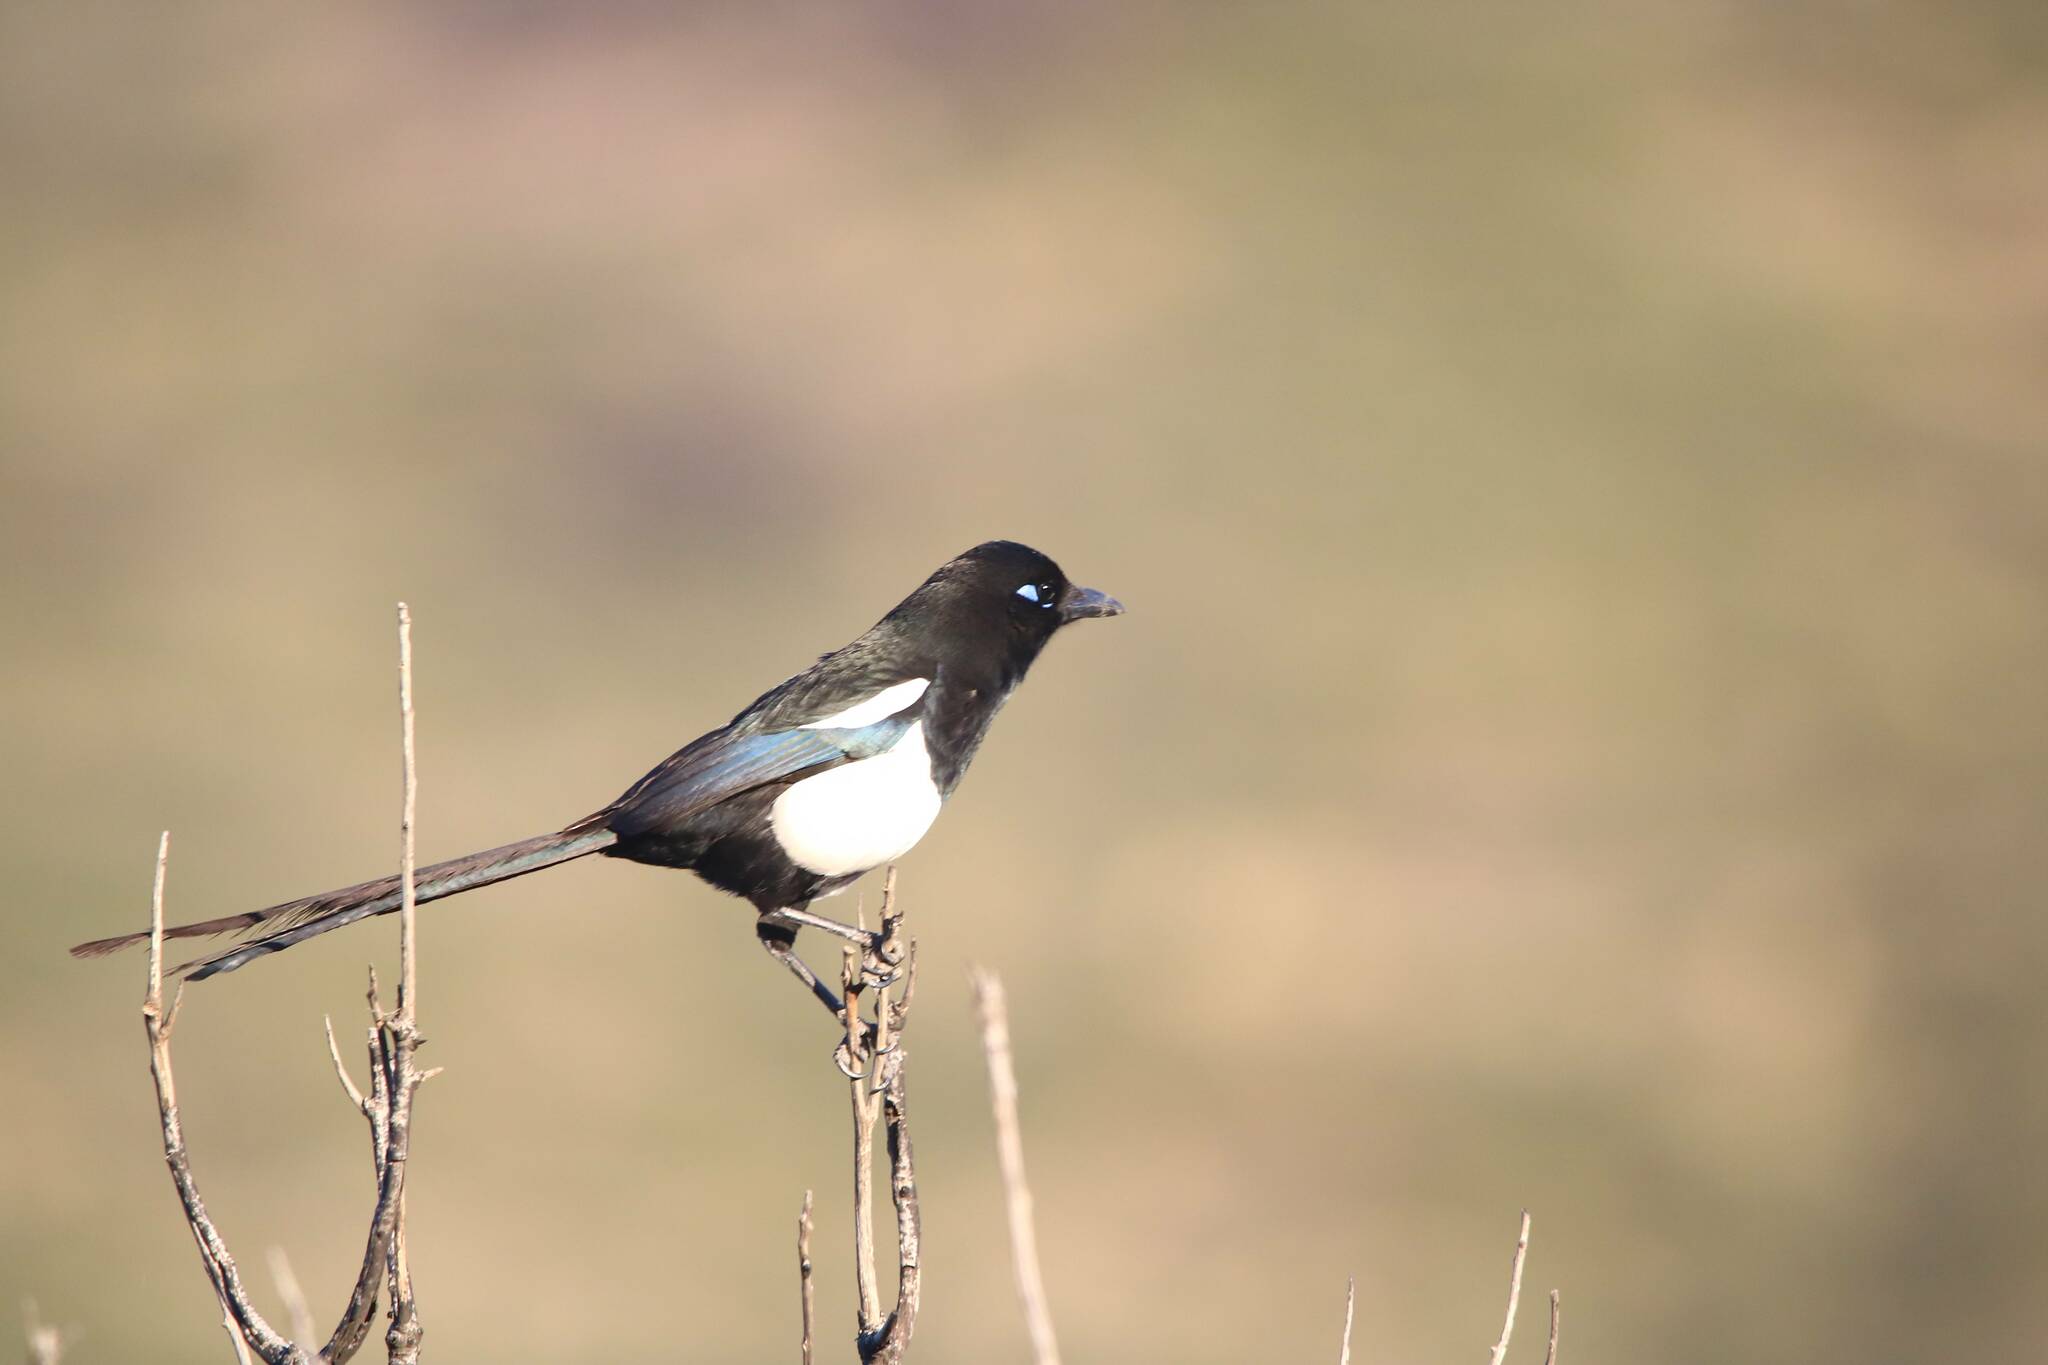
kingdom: Animalia
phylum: Chordata
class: Aves
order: Passeriformes
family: Corvidae
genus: Pica
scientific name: Pica mauritanica
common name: Maghreb magpie
